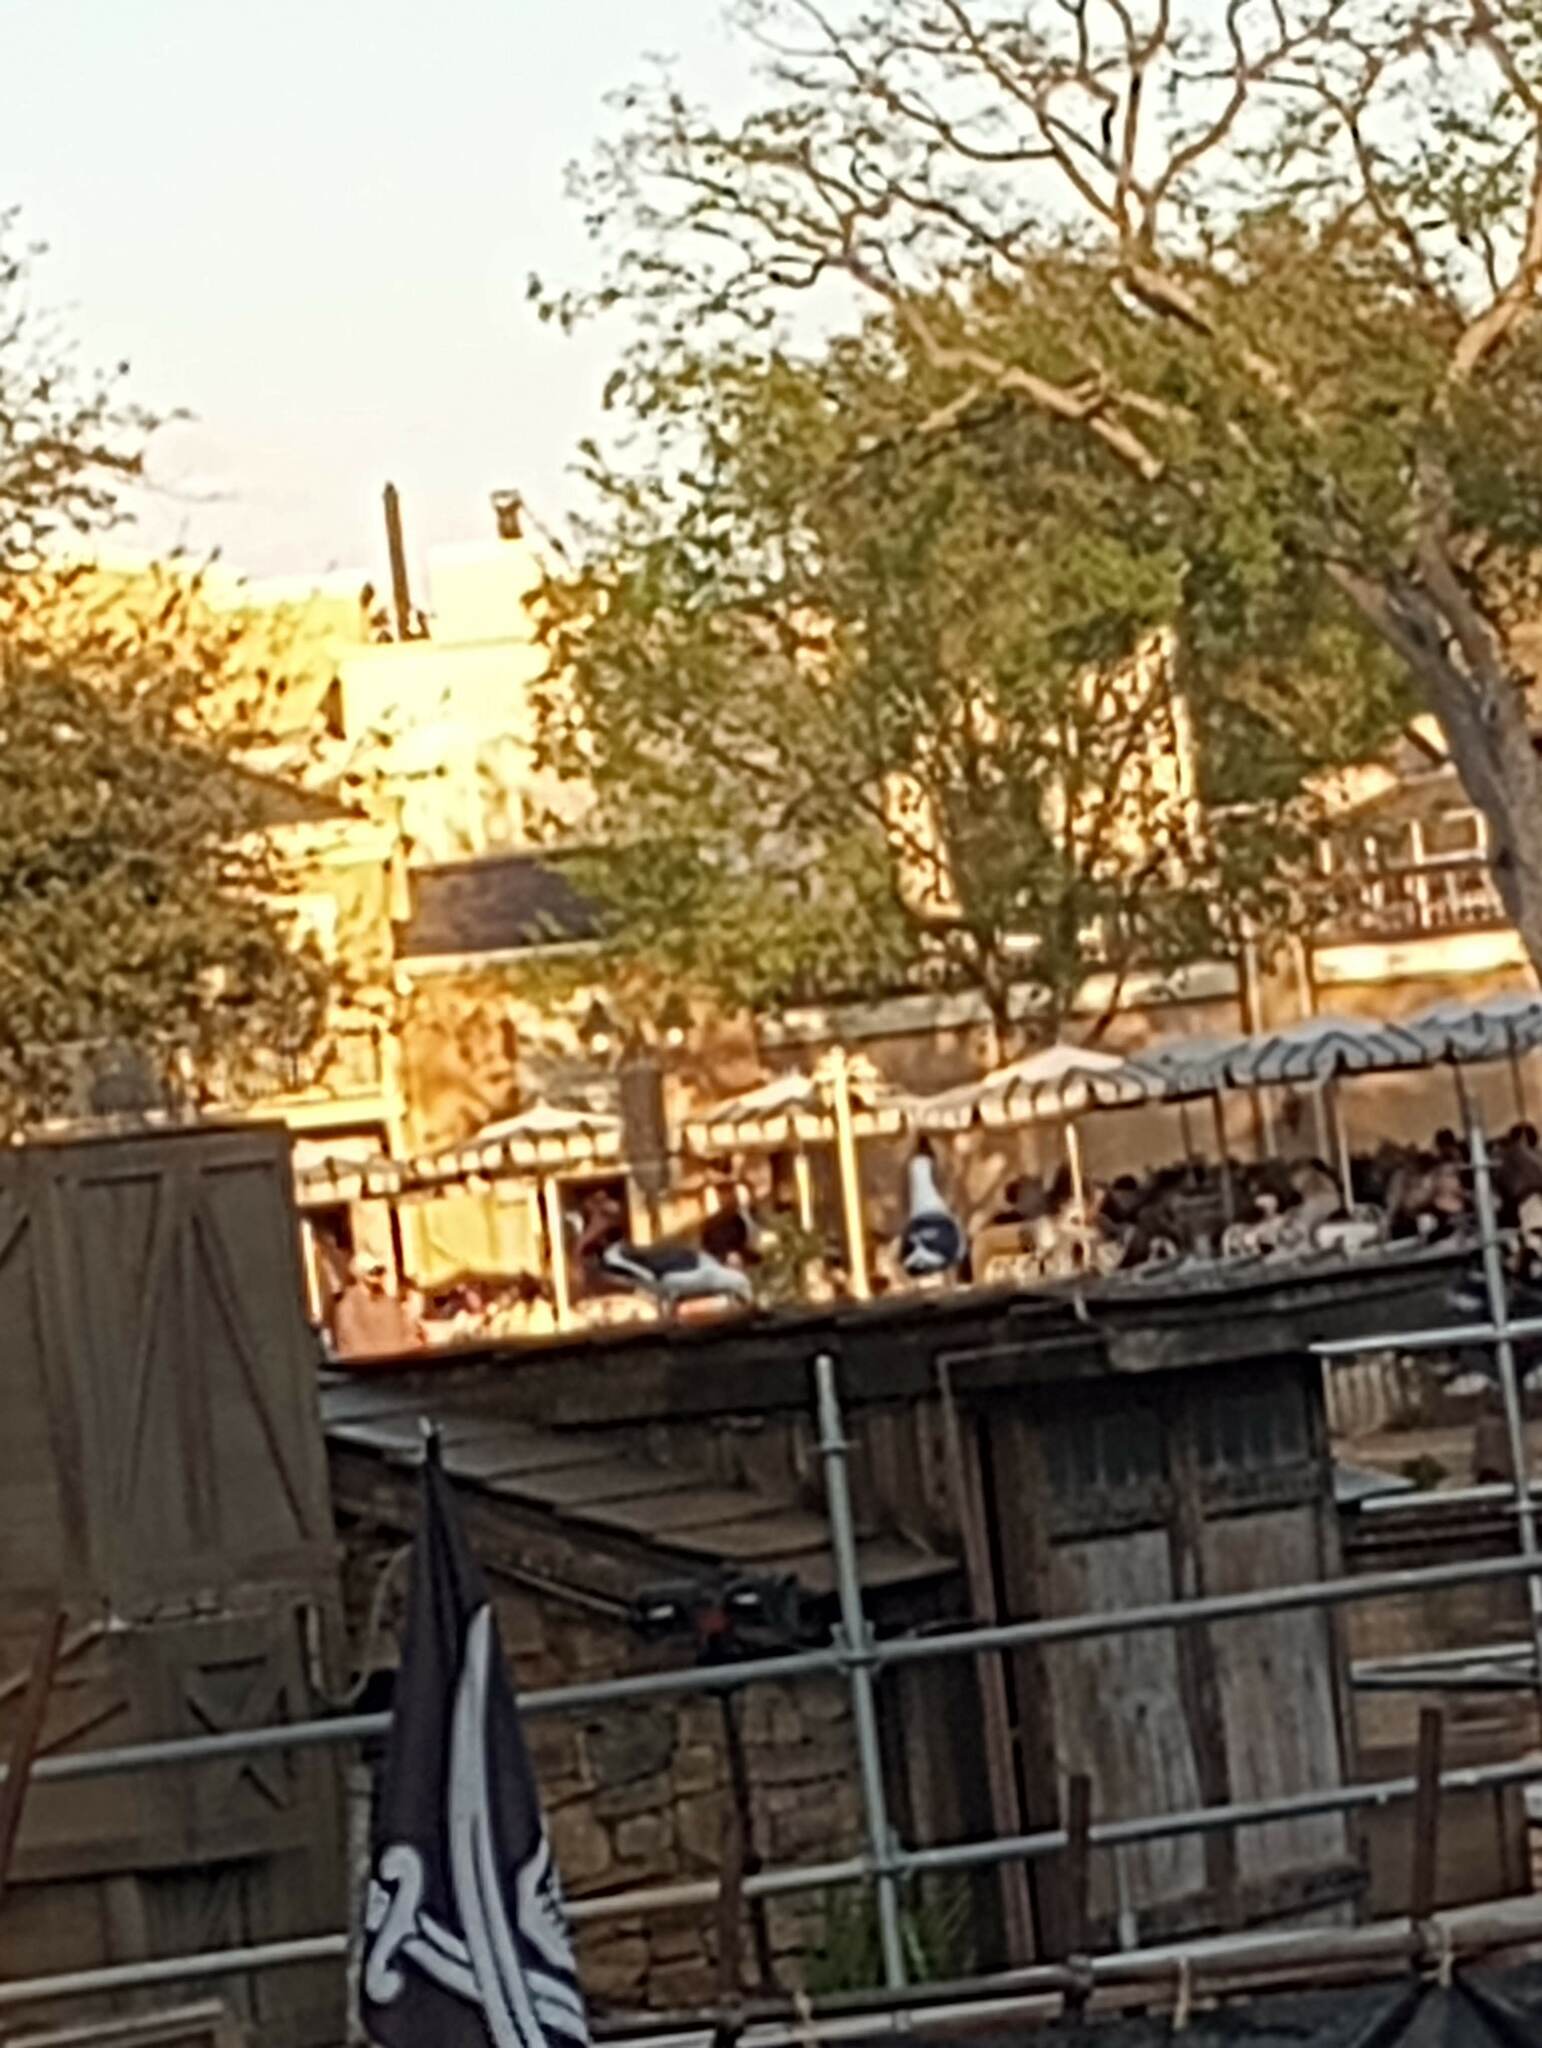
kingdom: Animalia
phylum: Chordata
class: Aves
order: Charadriiformes
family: Laridae
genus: Larus
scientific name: Larus occidentalis
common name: Western gull
